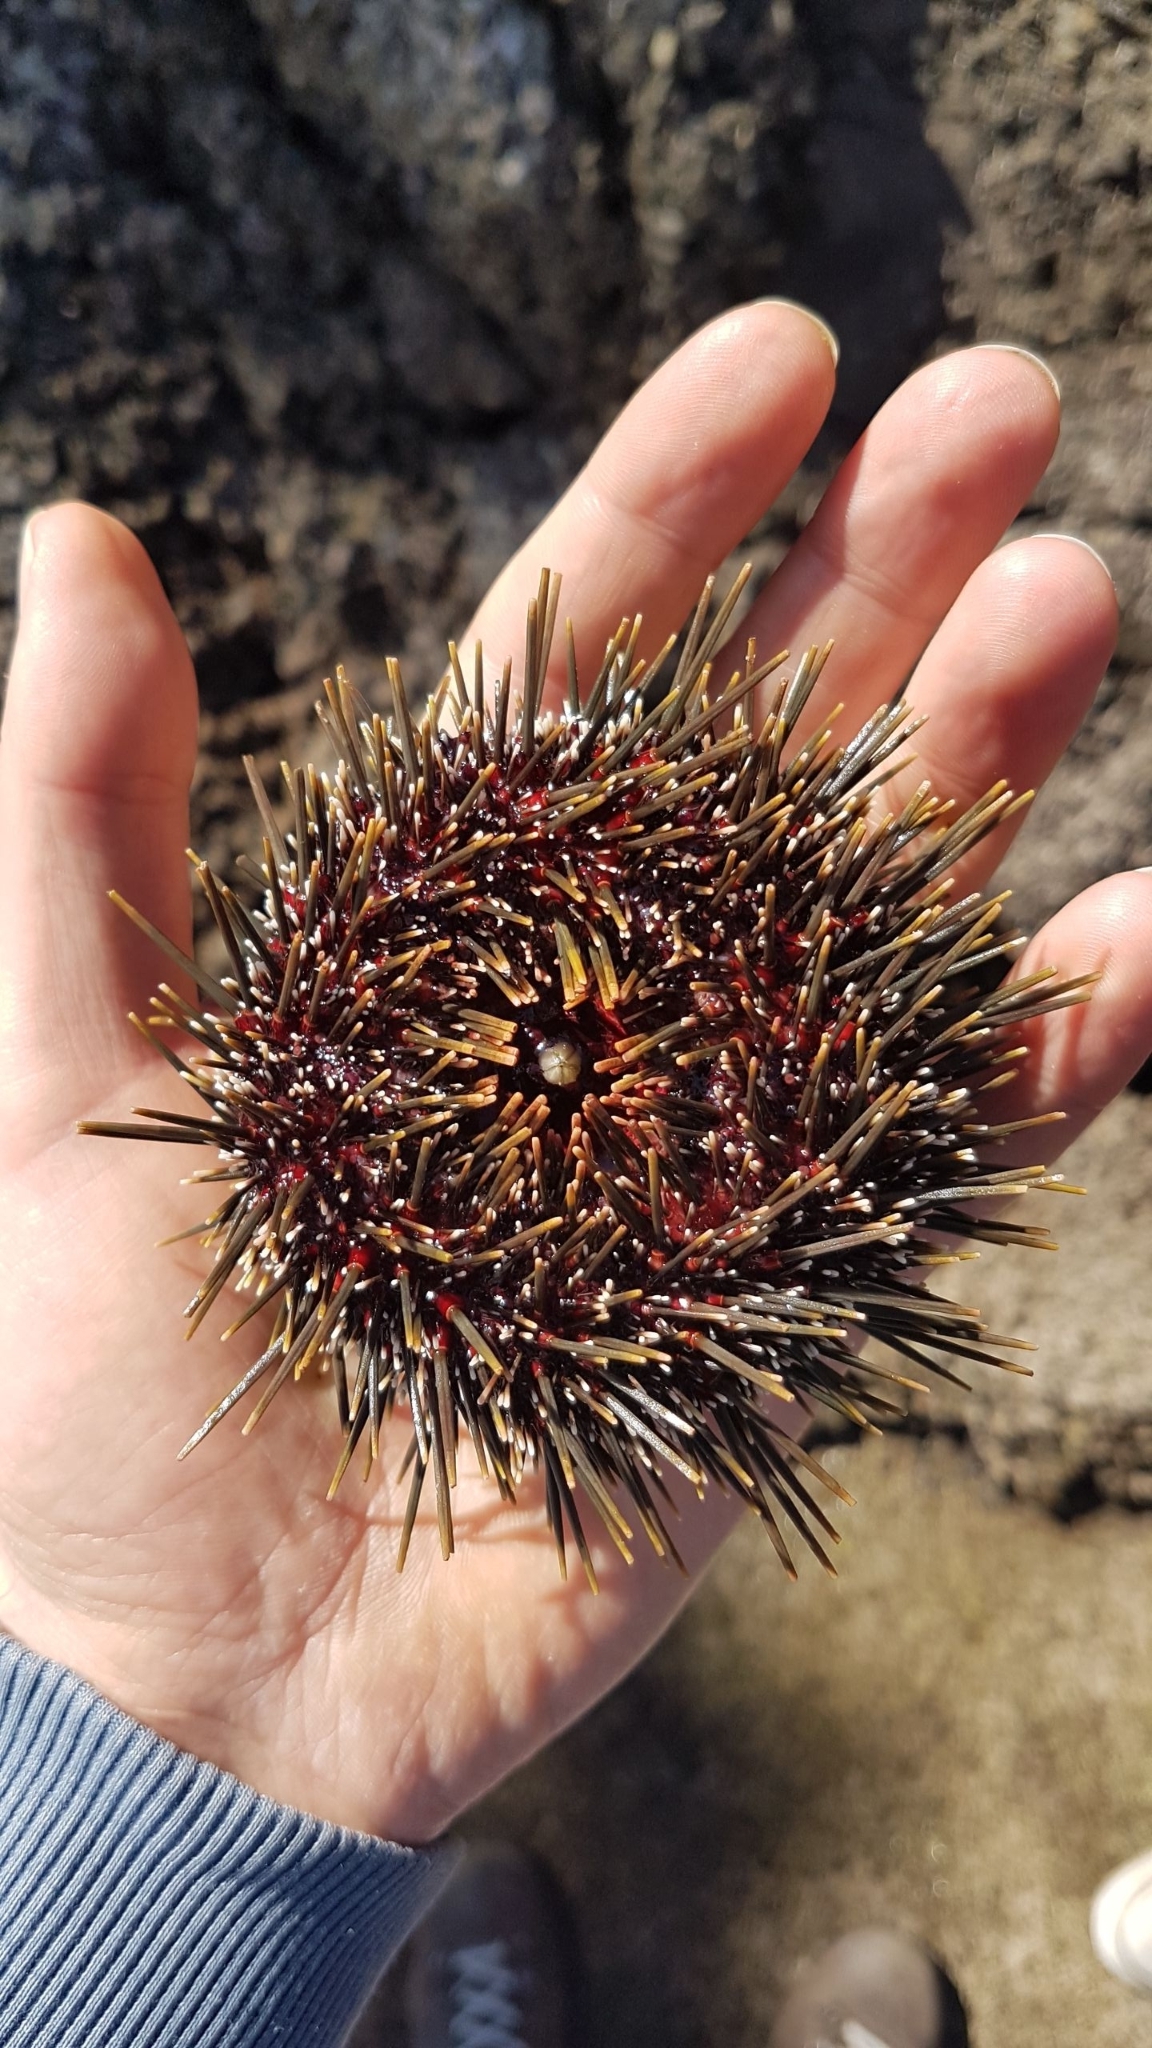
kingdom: Animalia
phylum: Echinodermata
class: Echinoidea
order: Camarodonta
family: Echinometridae
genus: Evechinus
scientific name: Evechinus chloroticus
